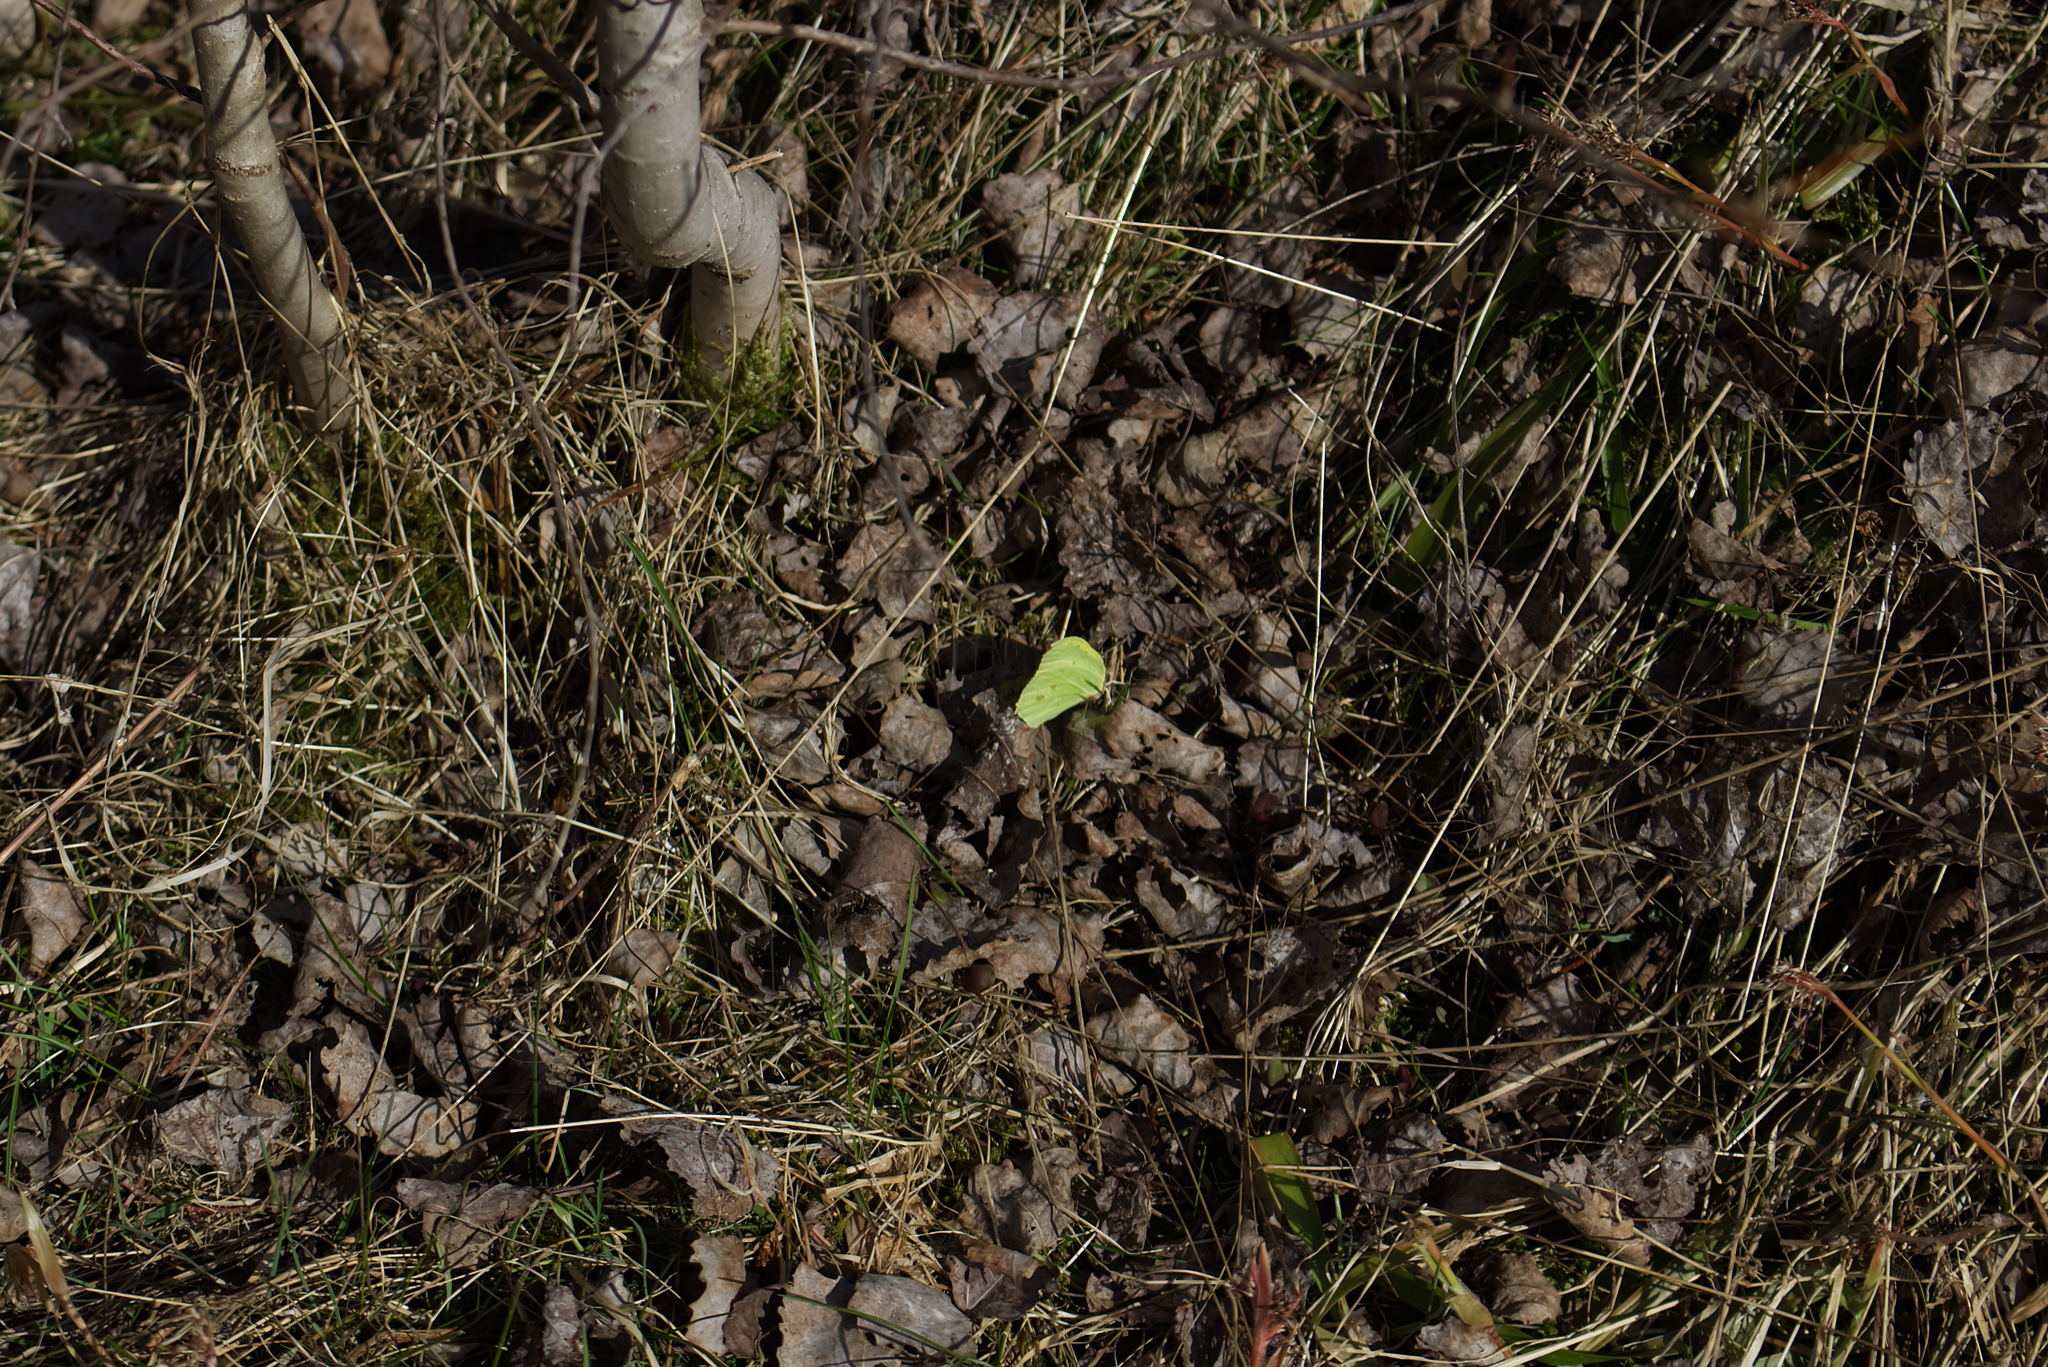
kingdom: Animalia
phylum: Arthropoda
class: Insecta
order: Lepidoptera
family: Pieridae
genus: Gonepteryx
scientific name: Gonepteryx rhamni
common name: Brimstone
